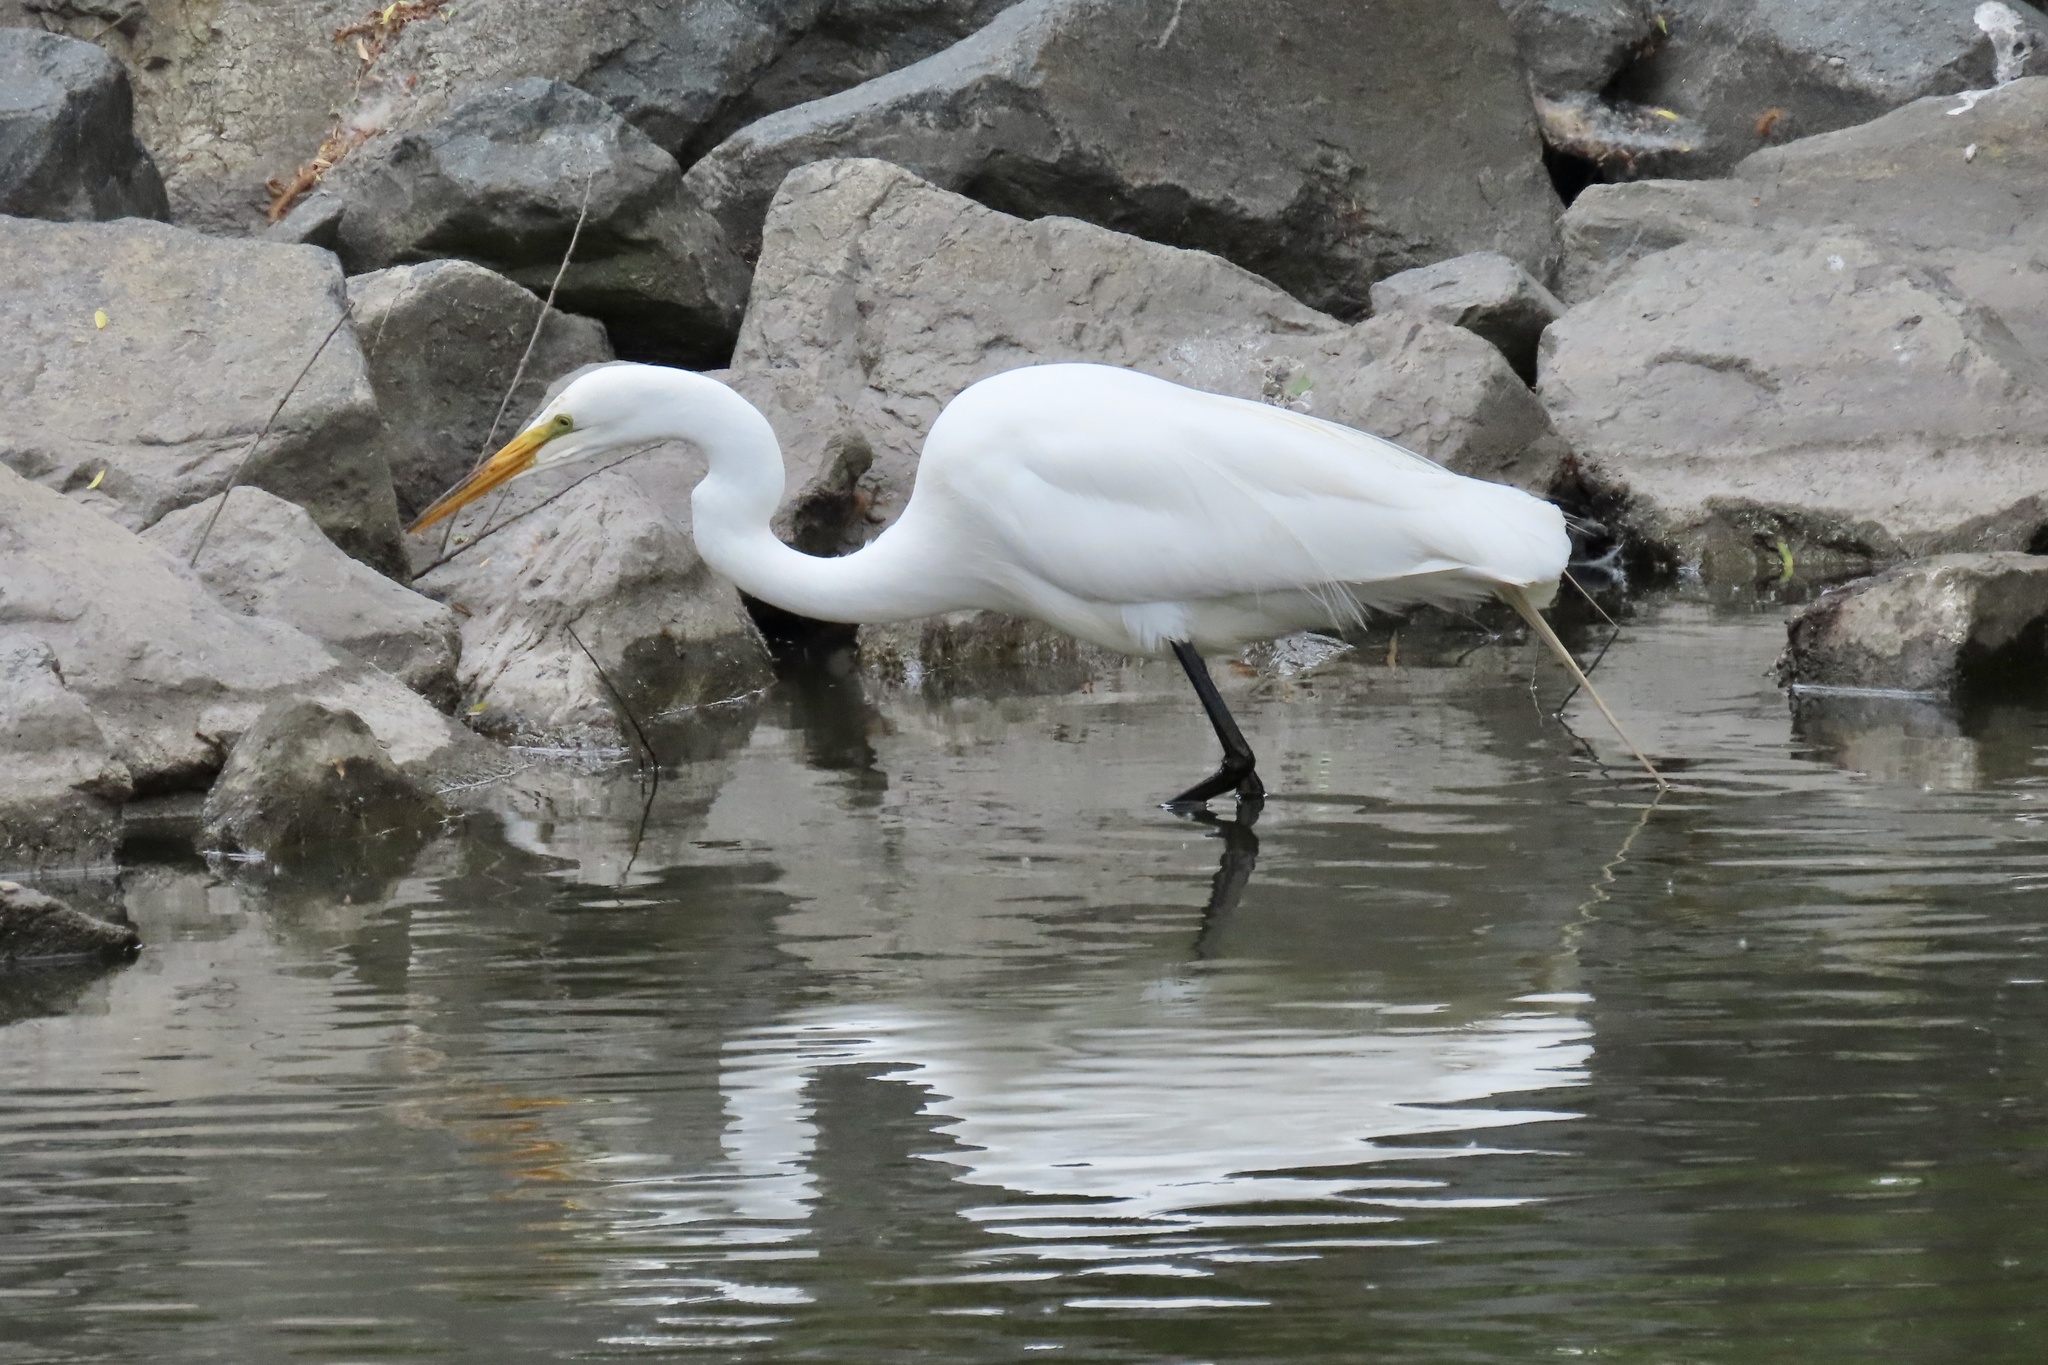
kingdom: Animalia
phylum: Chordata
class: Aves
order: Pelecaniformes
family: Ardeidae
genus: Ardea
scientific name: Ardea alba
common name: Great egret
